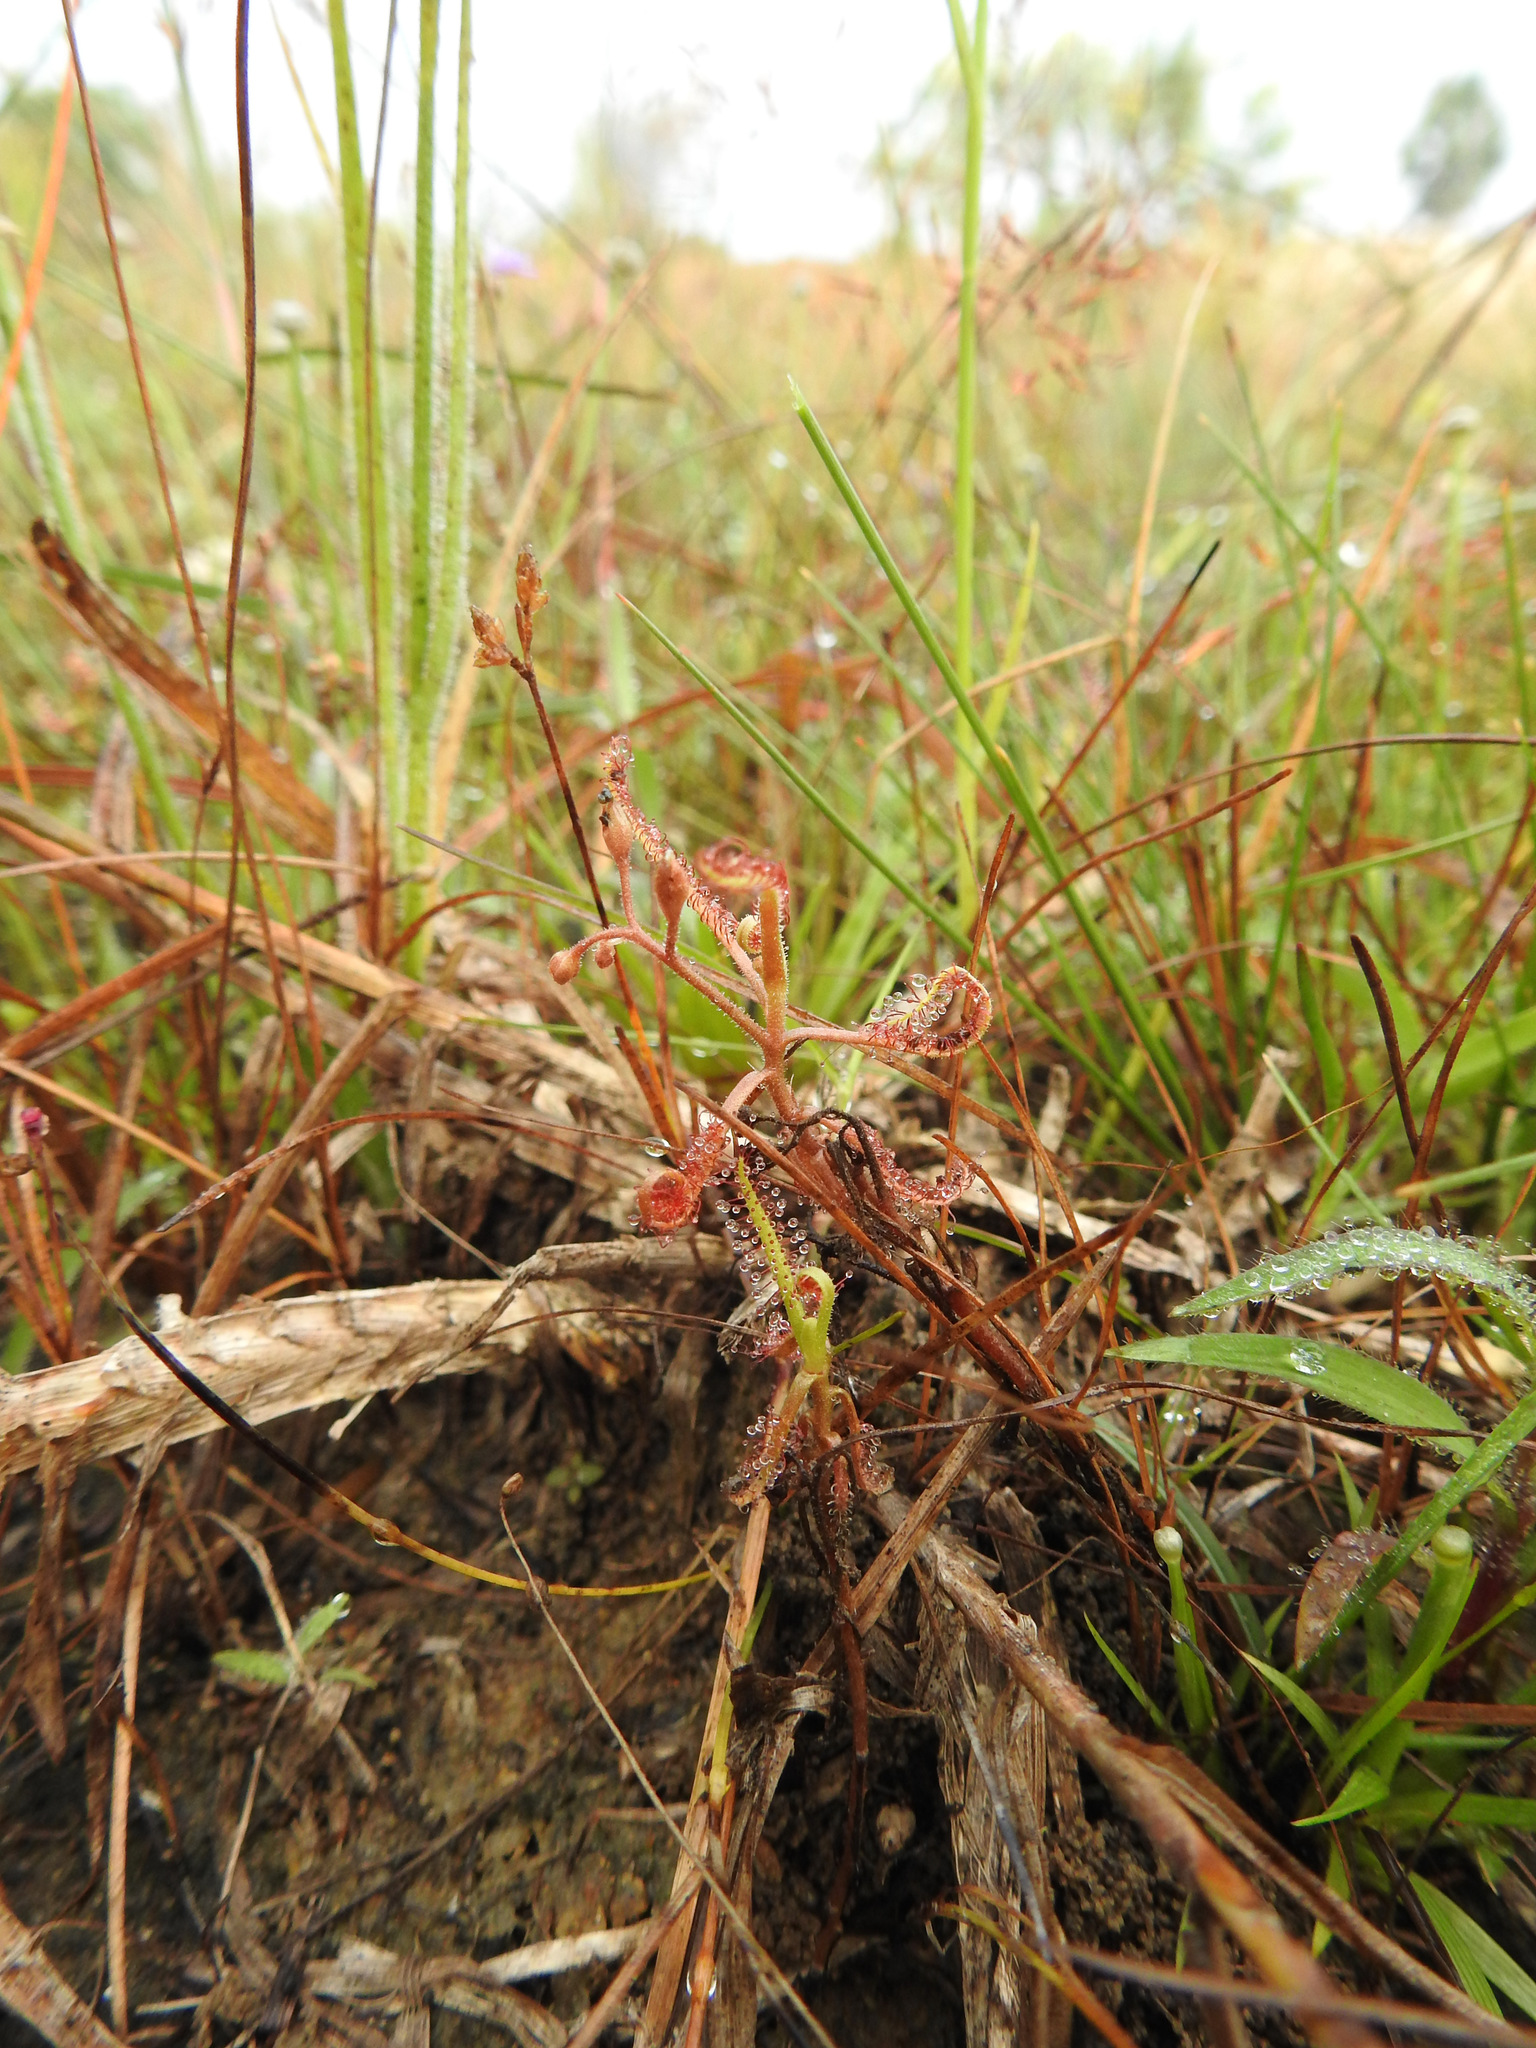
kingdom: Plantae
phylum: Tracheophyta
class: Magnoliopsida
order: Caryophyllales
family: Droseraceae
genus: Drosera
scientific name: Drosera indica
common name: Indian sundew
